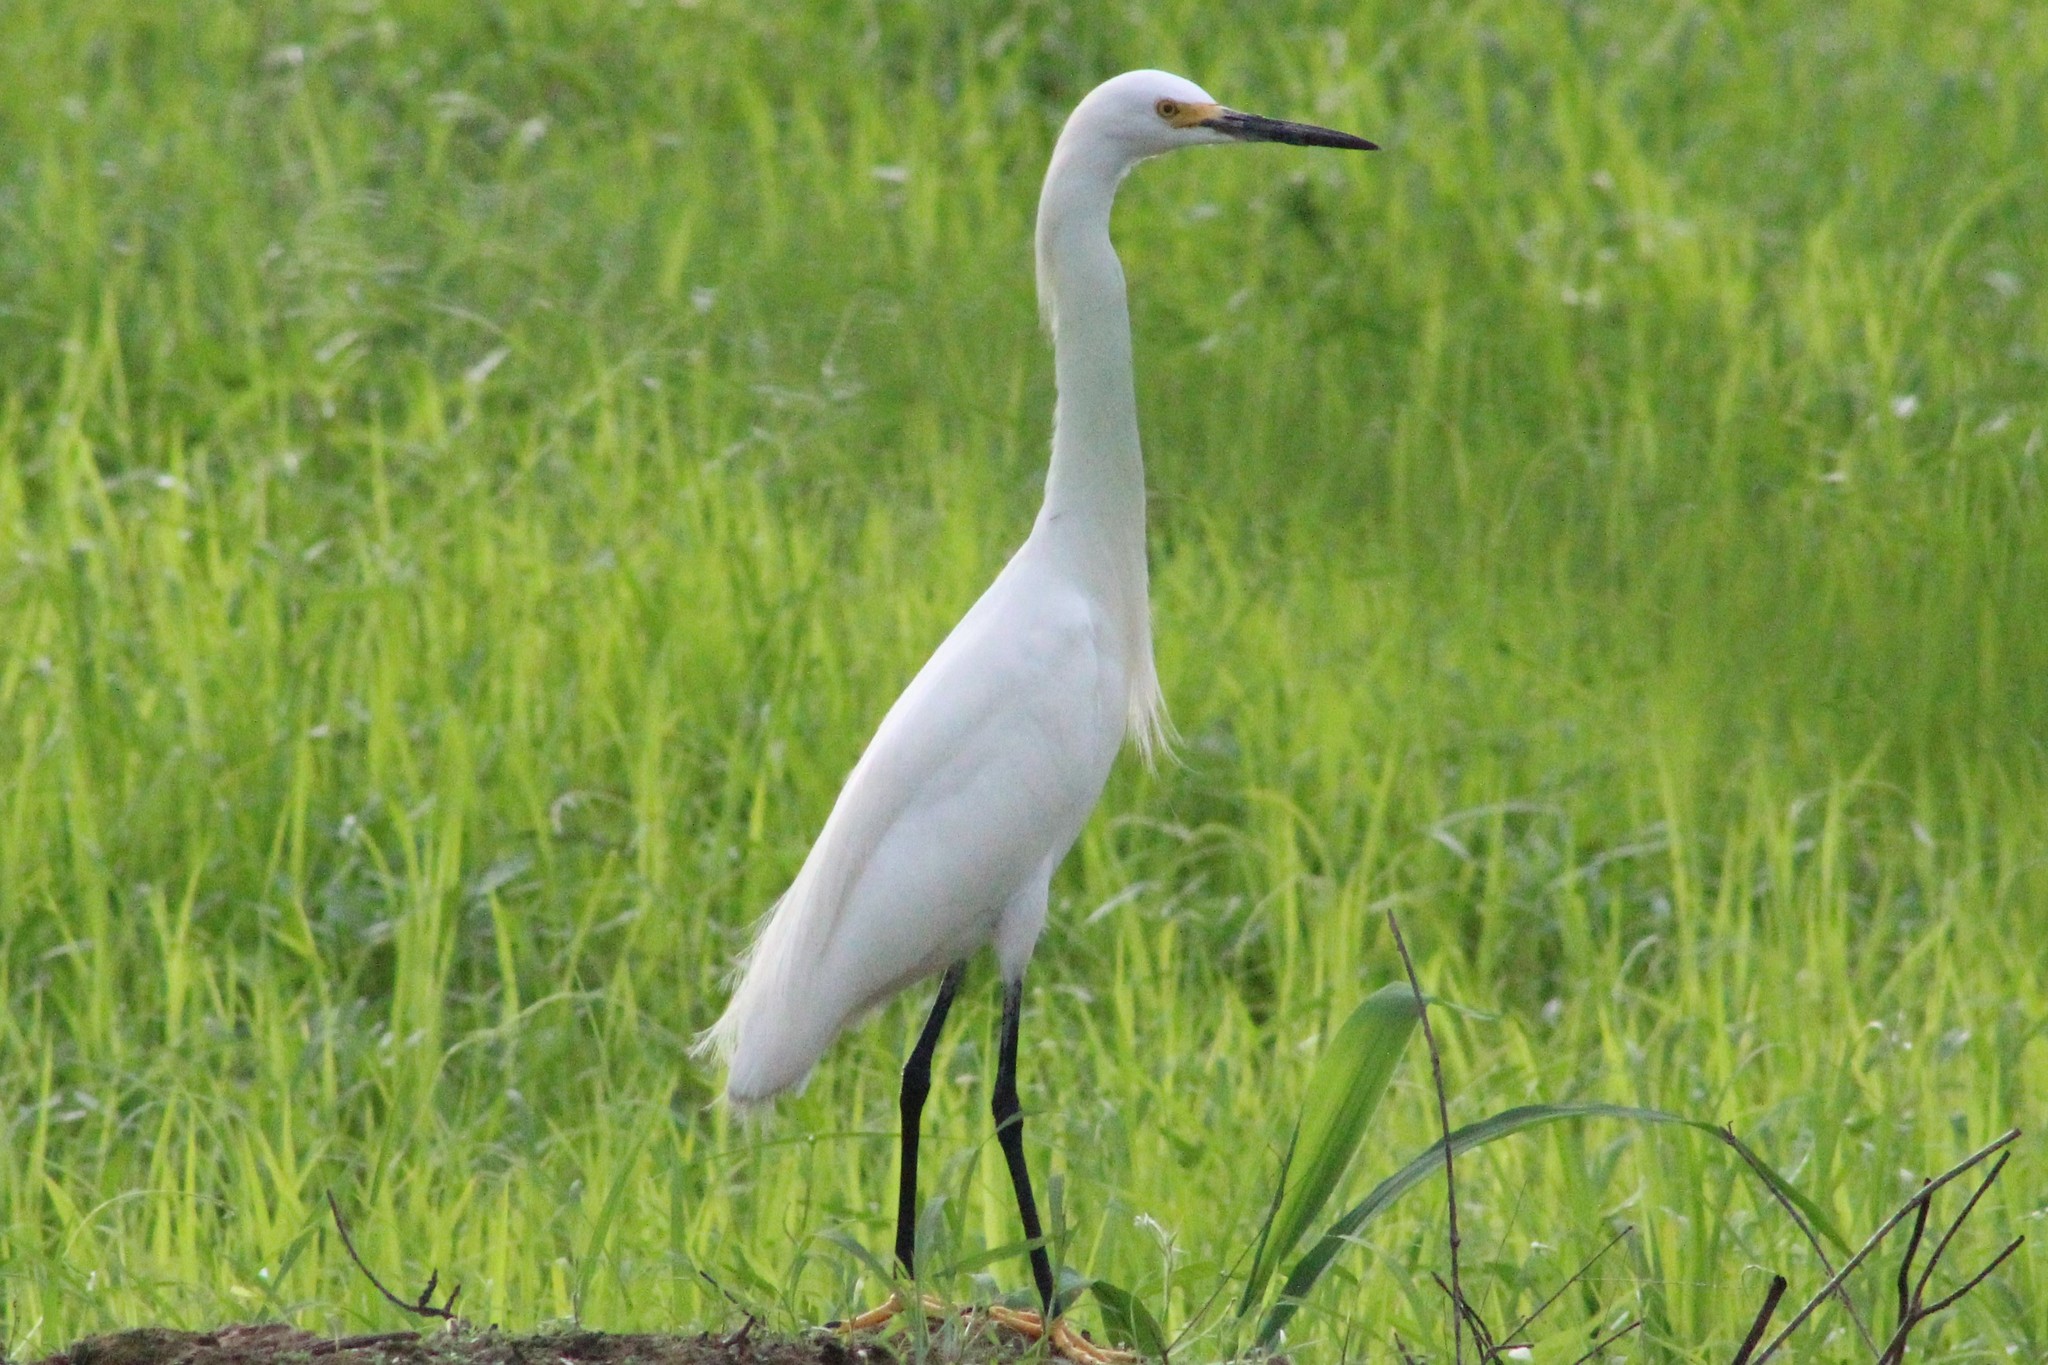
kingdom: Animalia
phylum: Chordata
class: Aves
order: Pelecaniformes
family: Ardeidae
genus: Egretta
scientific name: Egretta thula
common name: Snowy egret
